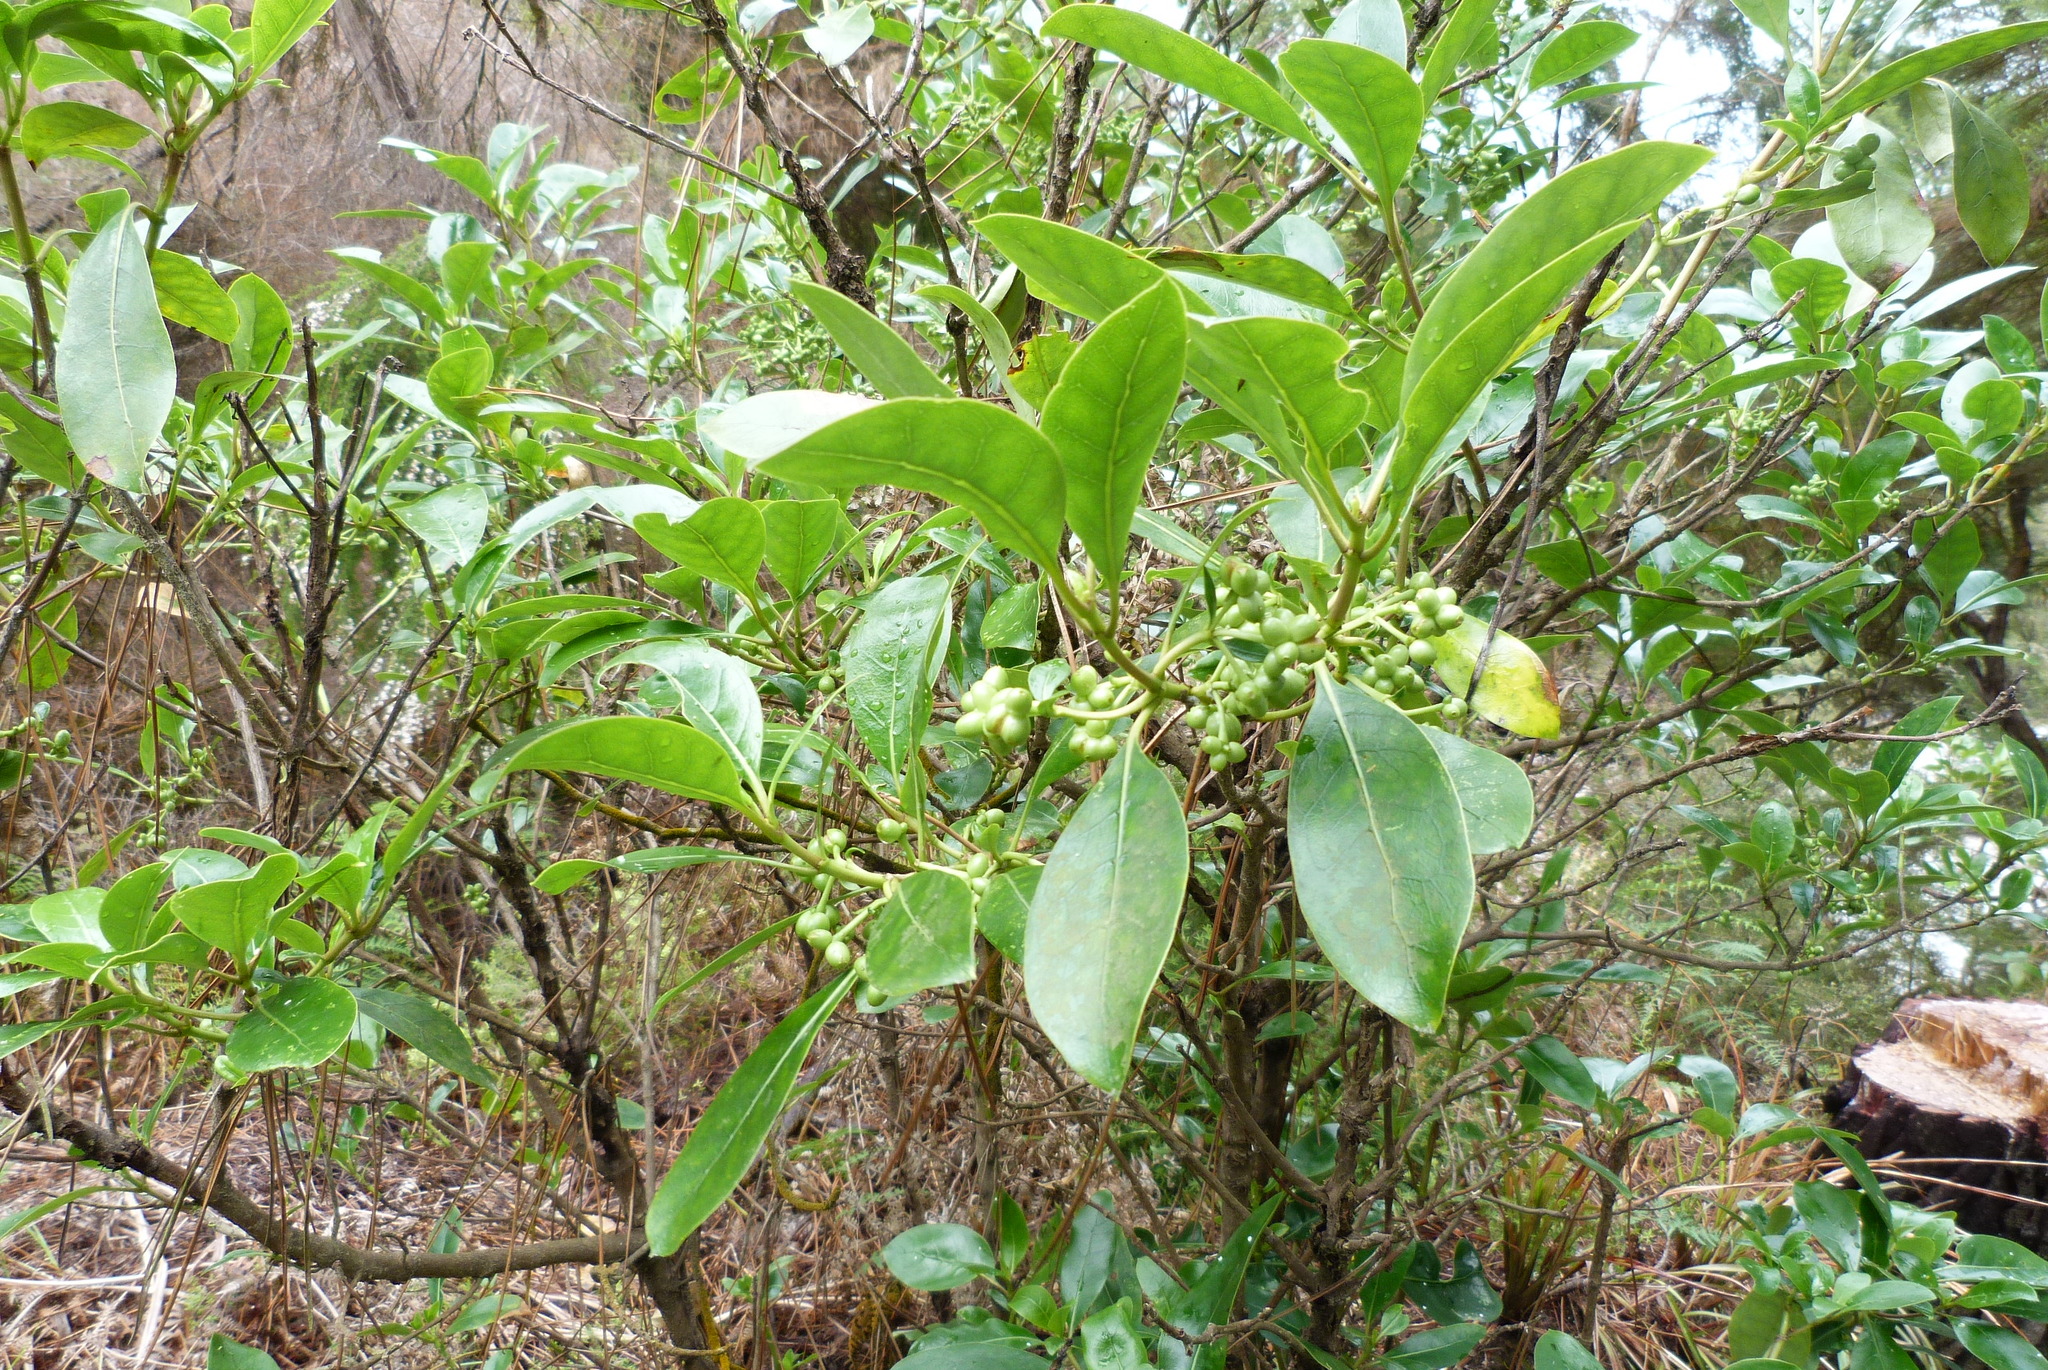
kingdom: Plantae
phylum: Tracheophyta
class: Magnoliopsida
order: Gentianales
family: Rubiaceae
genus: Coprosma
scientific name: Coprosma lucida
